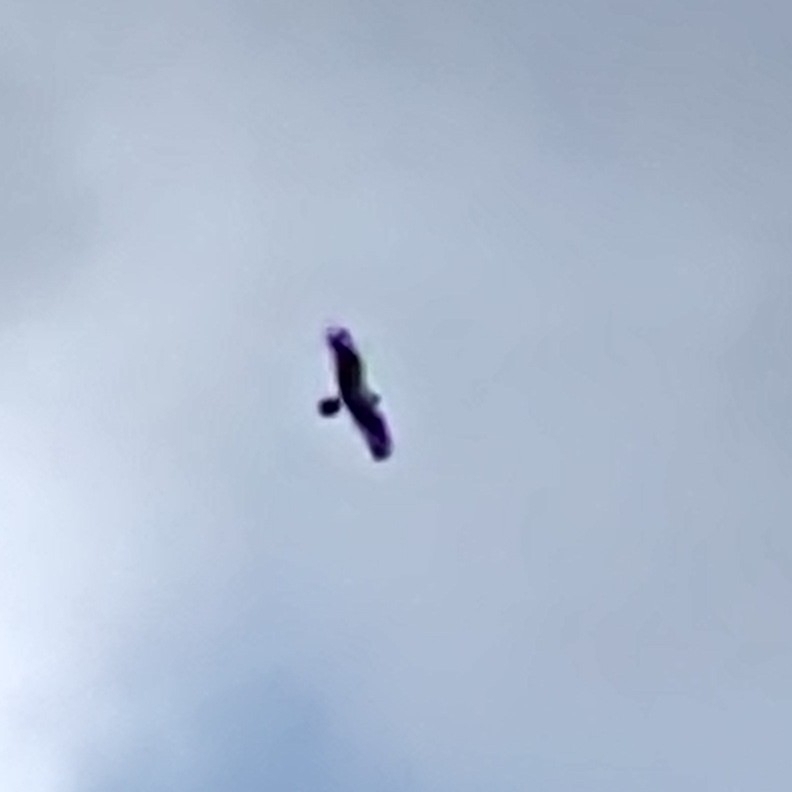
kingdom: Animalia
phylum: Chordata
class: Aves
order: Accipitriformes
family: Pandionidae
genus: Pandion
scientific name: Pandion haliaetus
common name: Osprey
